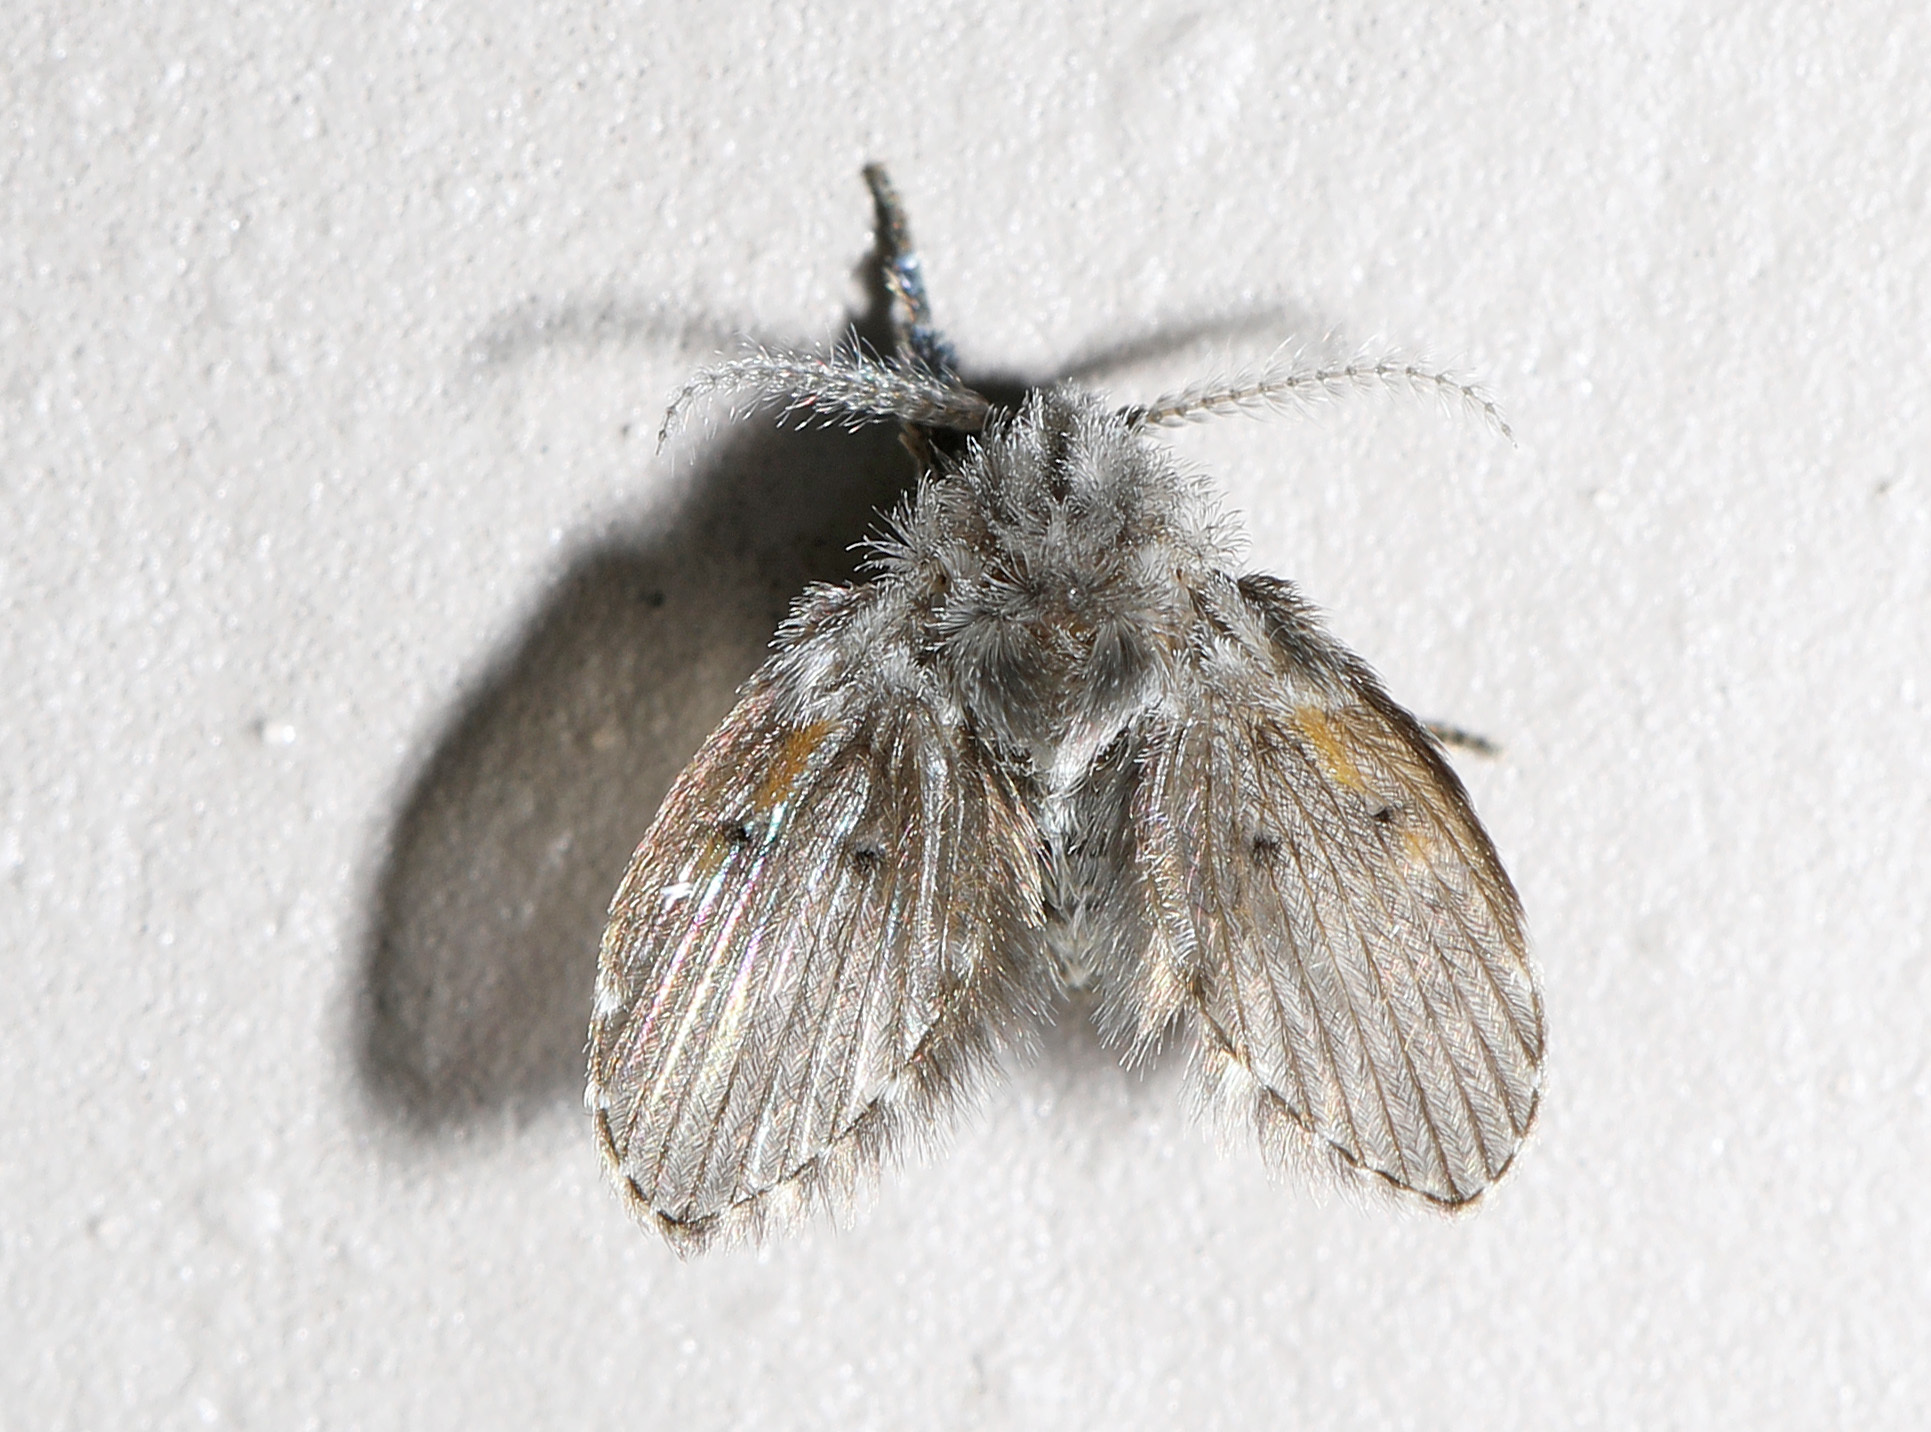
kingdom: Animalia
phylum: Arthropoda
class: Insecta
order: Diptera
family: Psychodidae
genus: Clogmia
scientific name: Clogmia albipunctatus
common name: White-spotted moth fly
